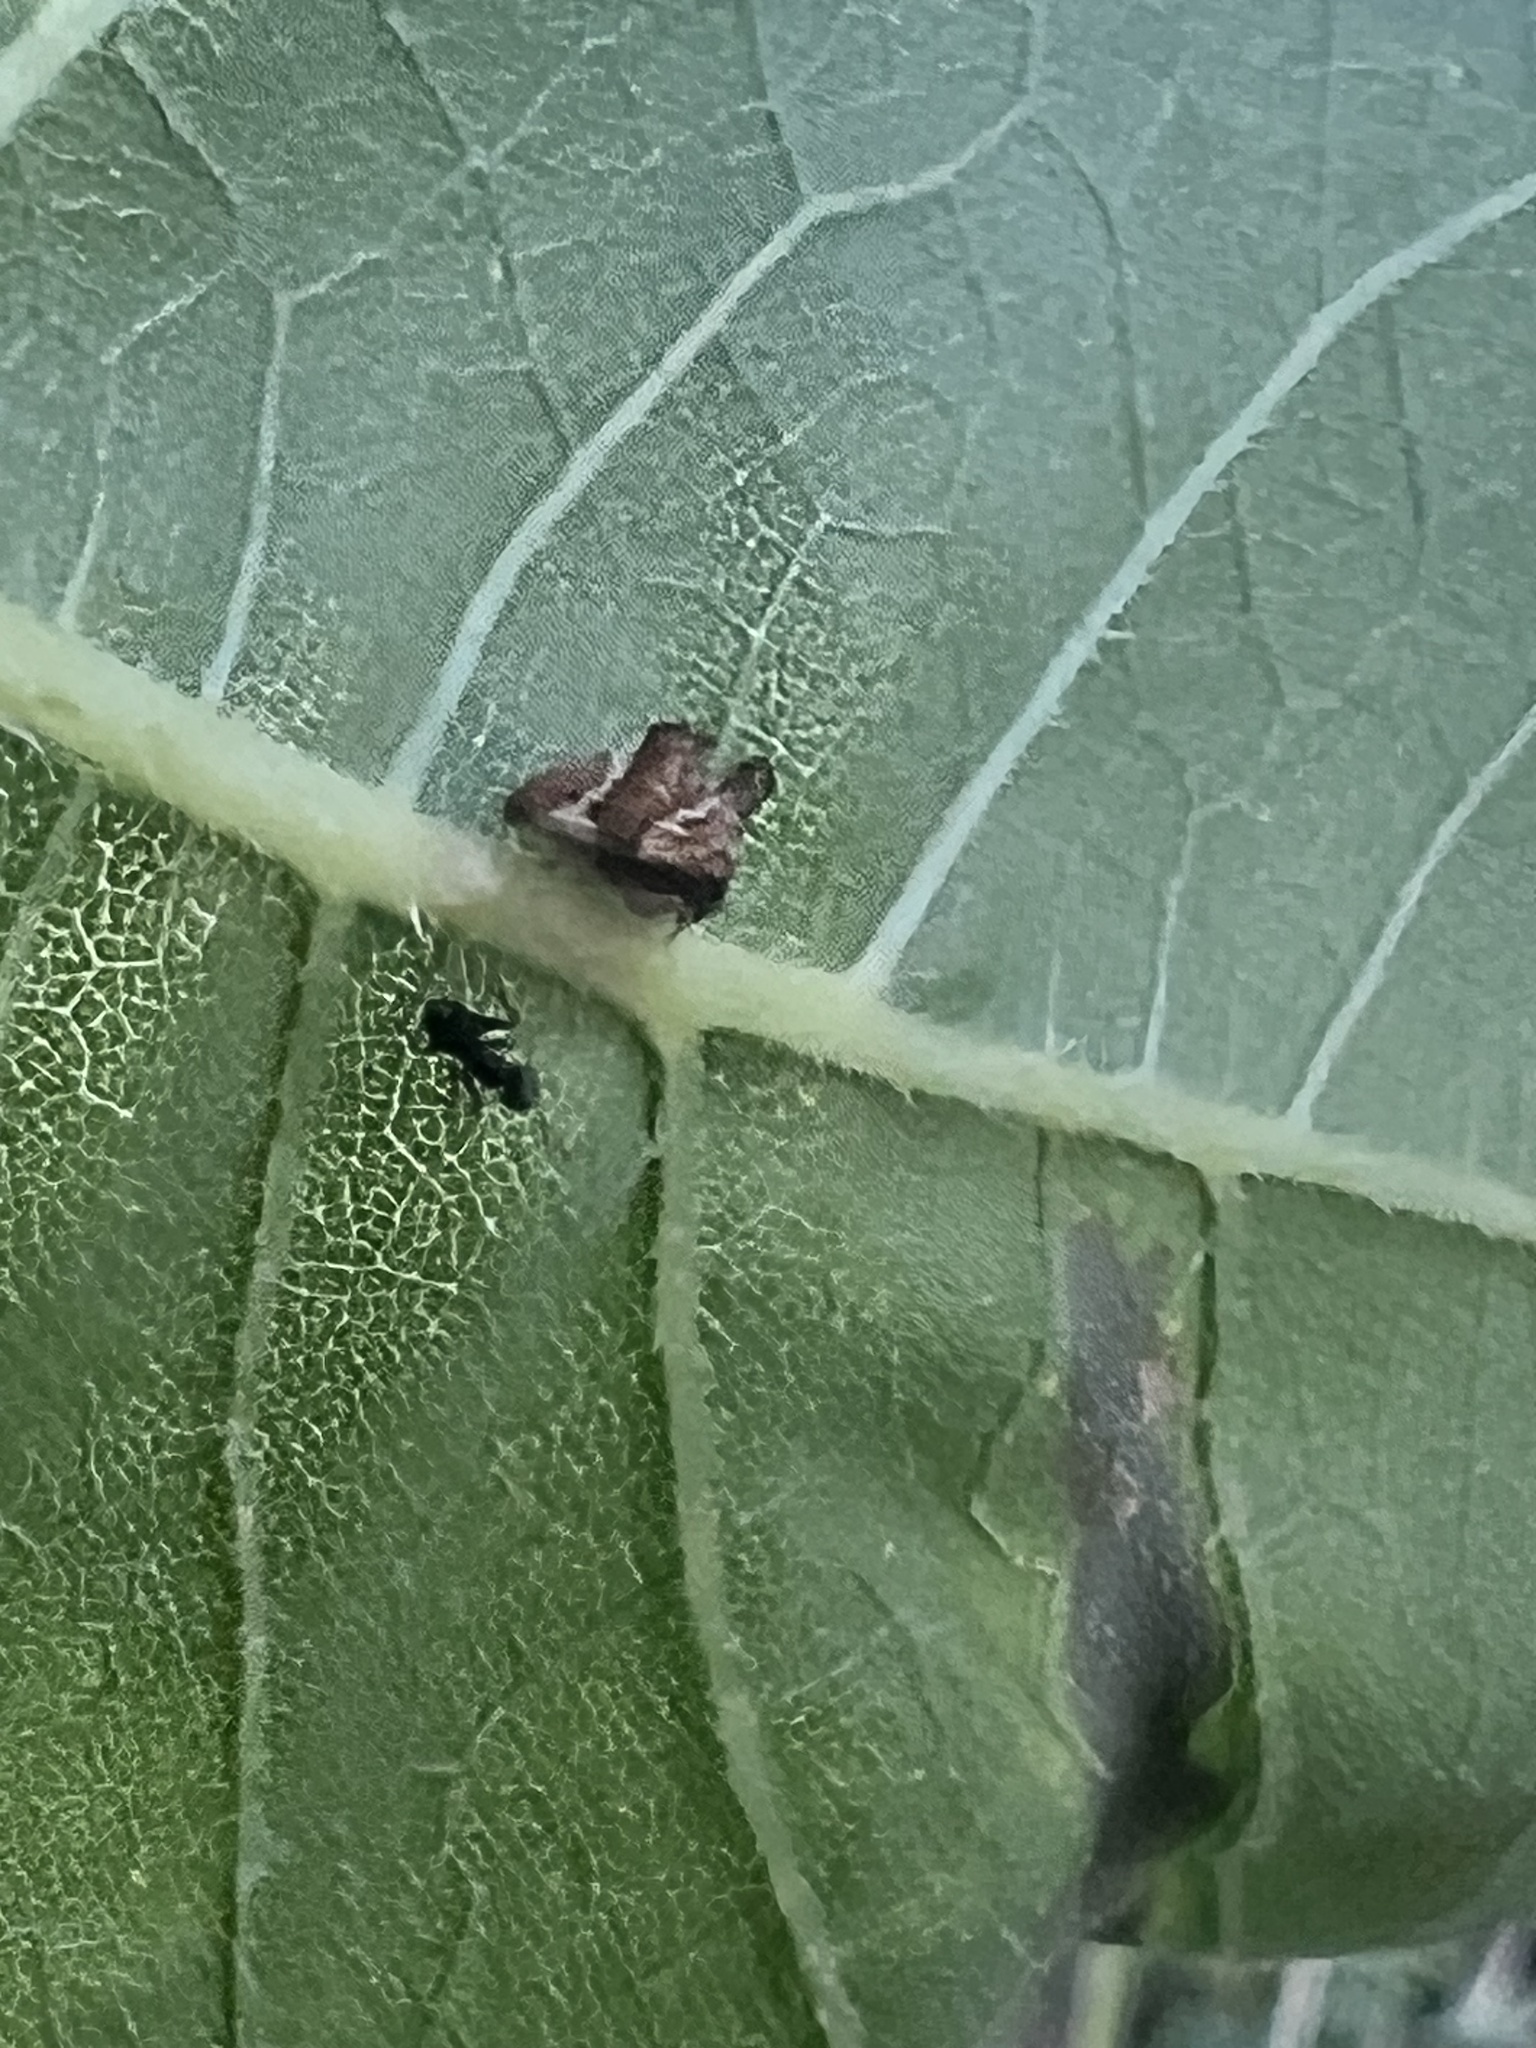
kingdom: Animalia
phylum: Arthropoda
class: Insecta
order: Hemiptera
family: Membracidae
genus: Entylia
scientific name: Entylia carinata
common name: Keeled treehopper
